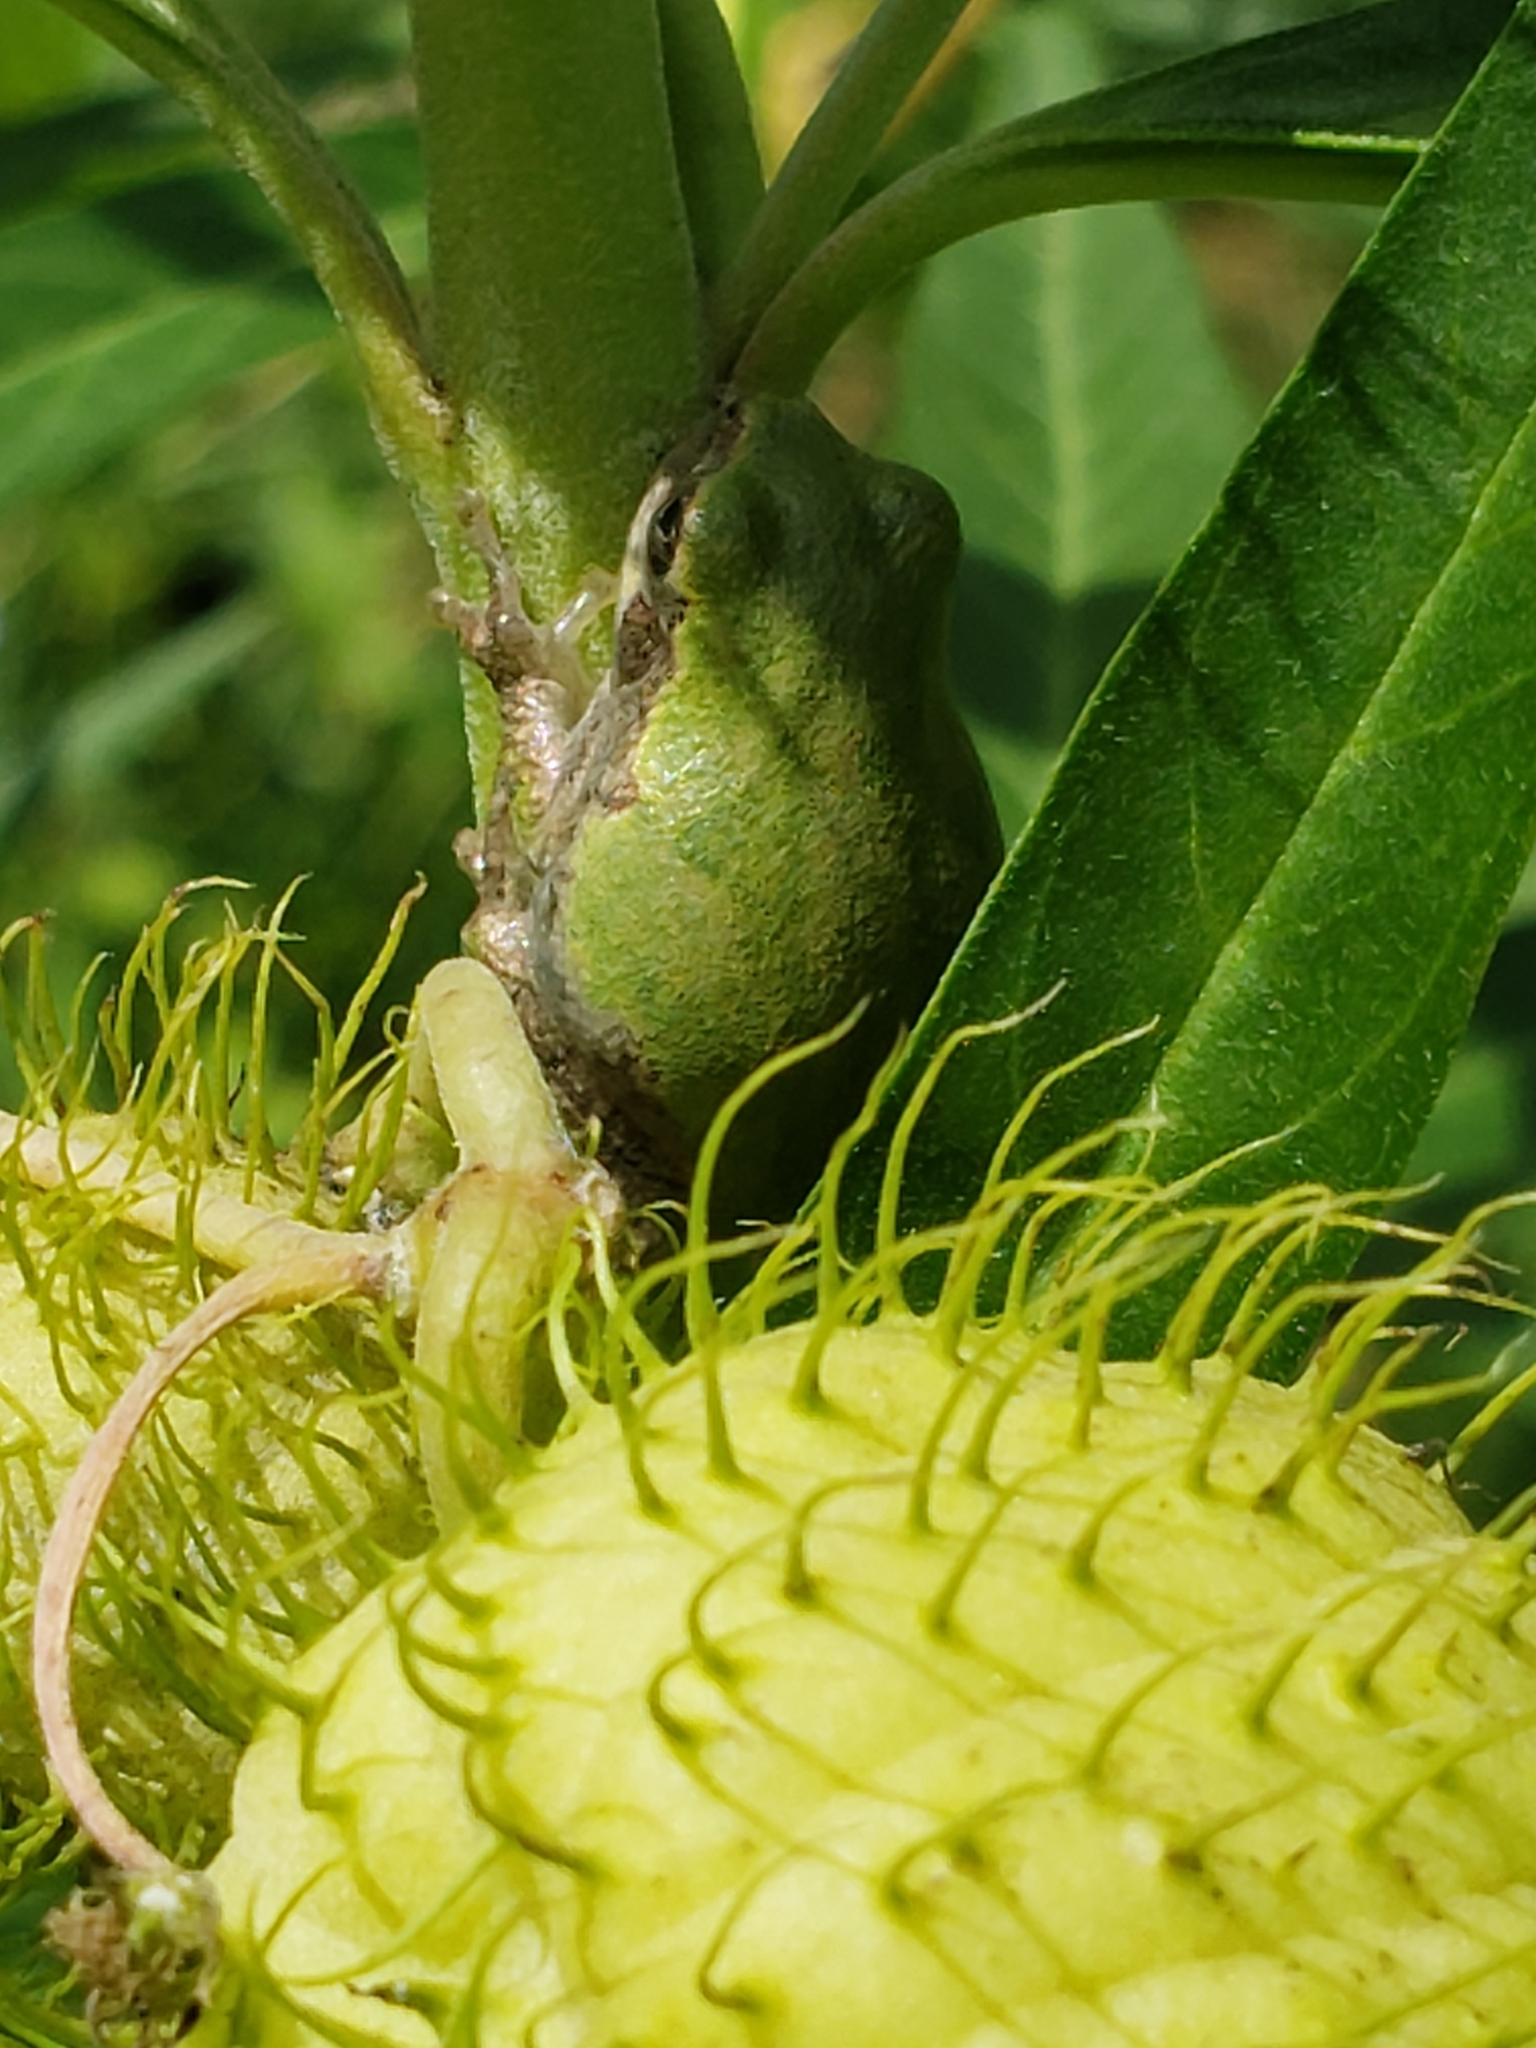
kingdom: Animalia
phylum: Chordata
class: Amphibia
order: Anura
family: Hylidae
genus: Hyla
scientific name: Hyla
